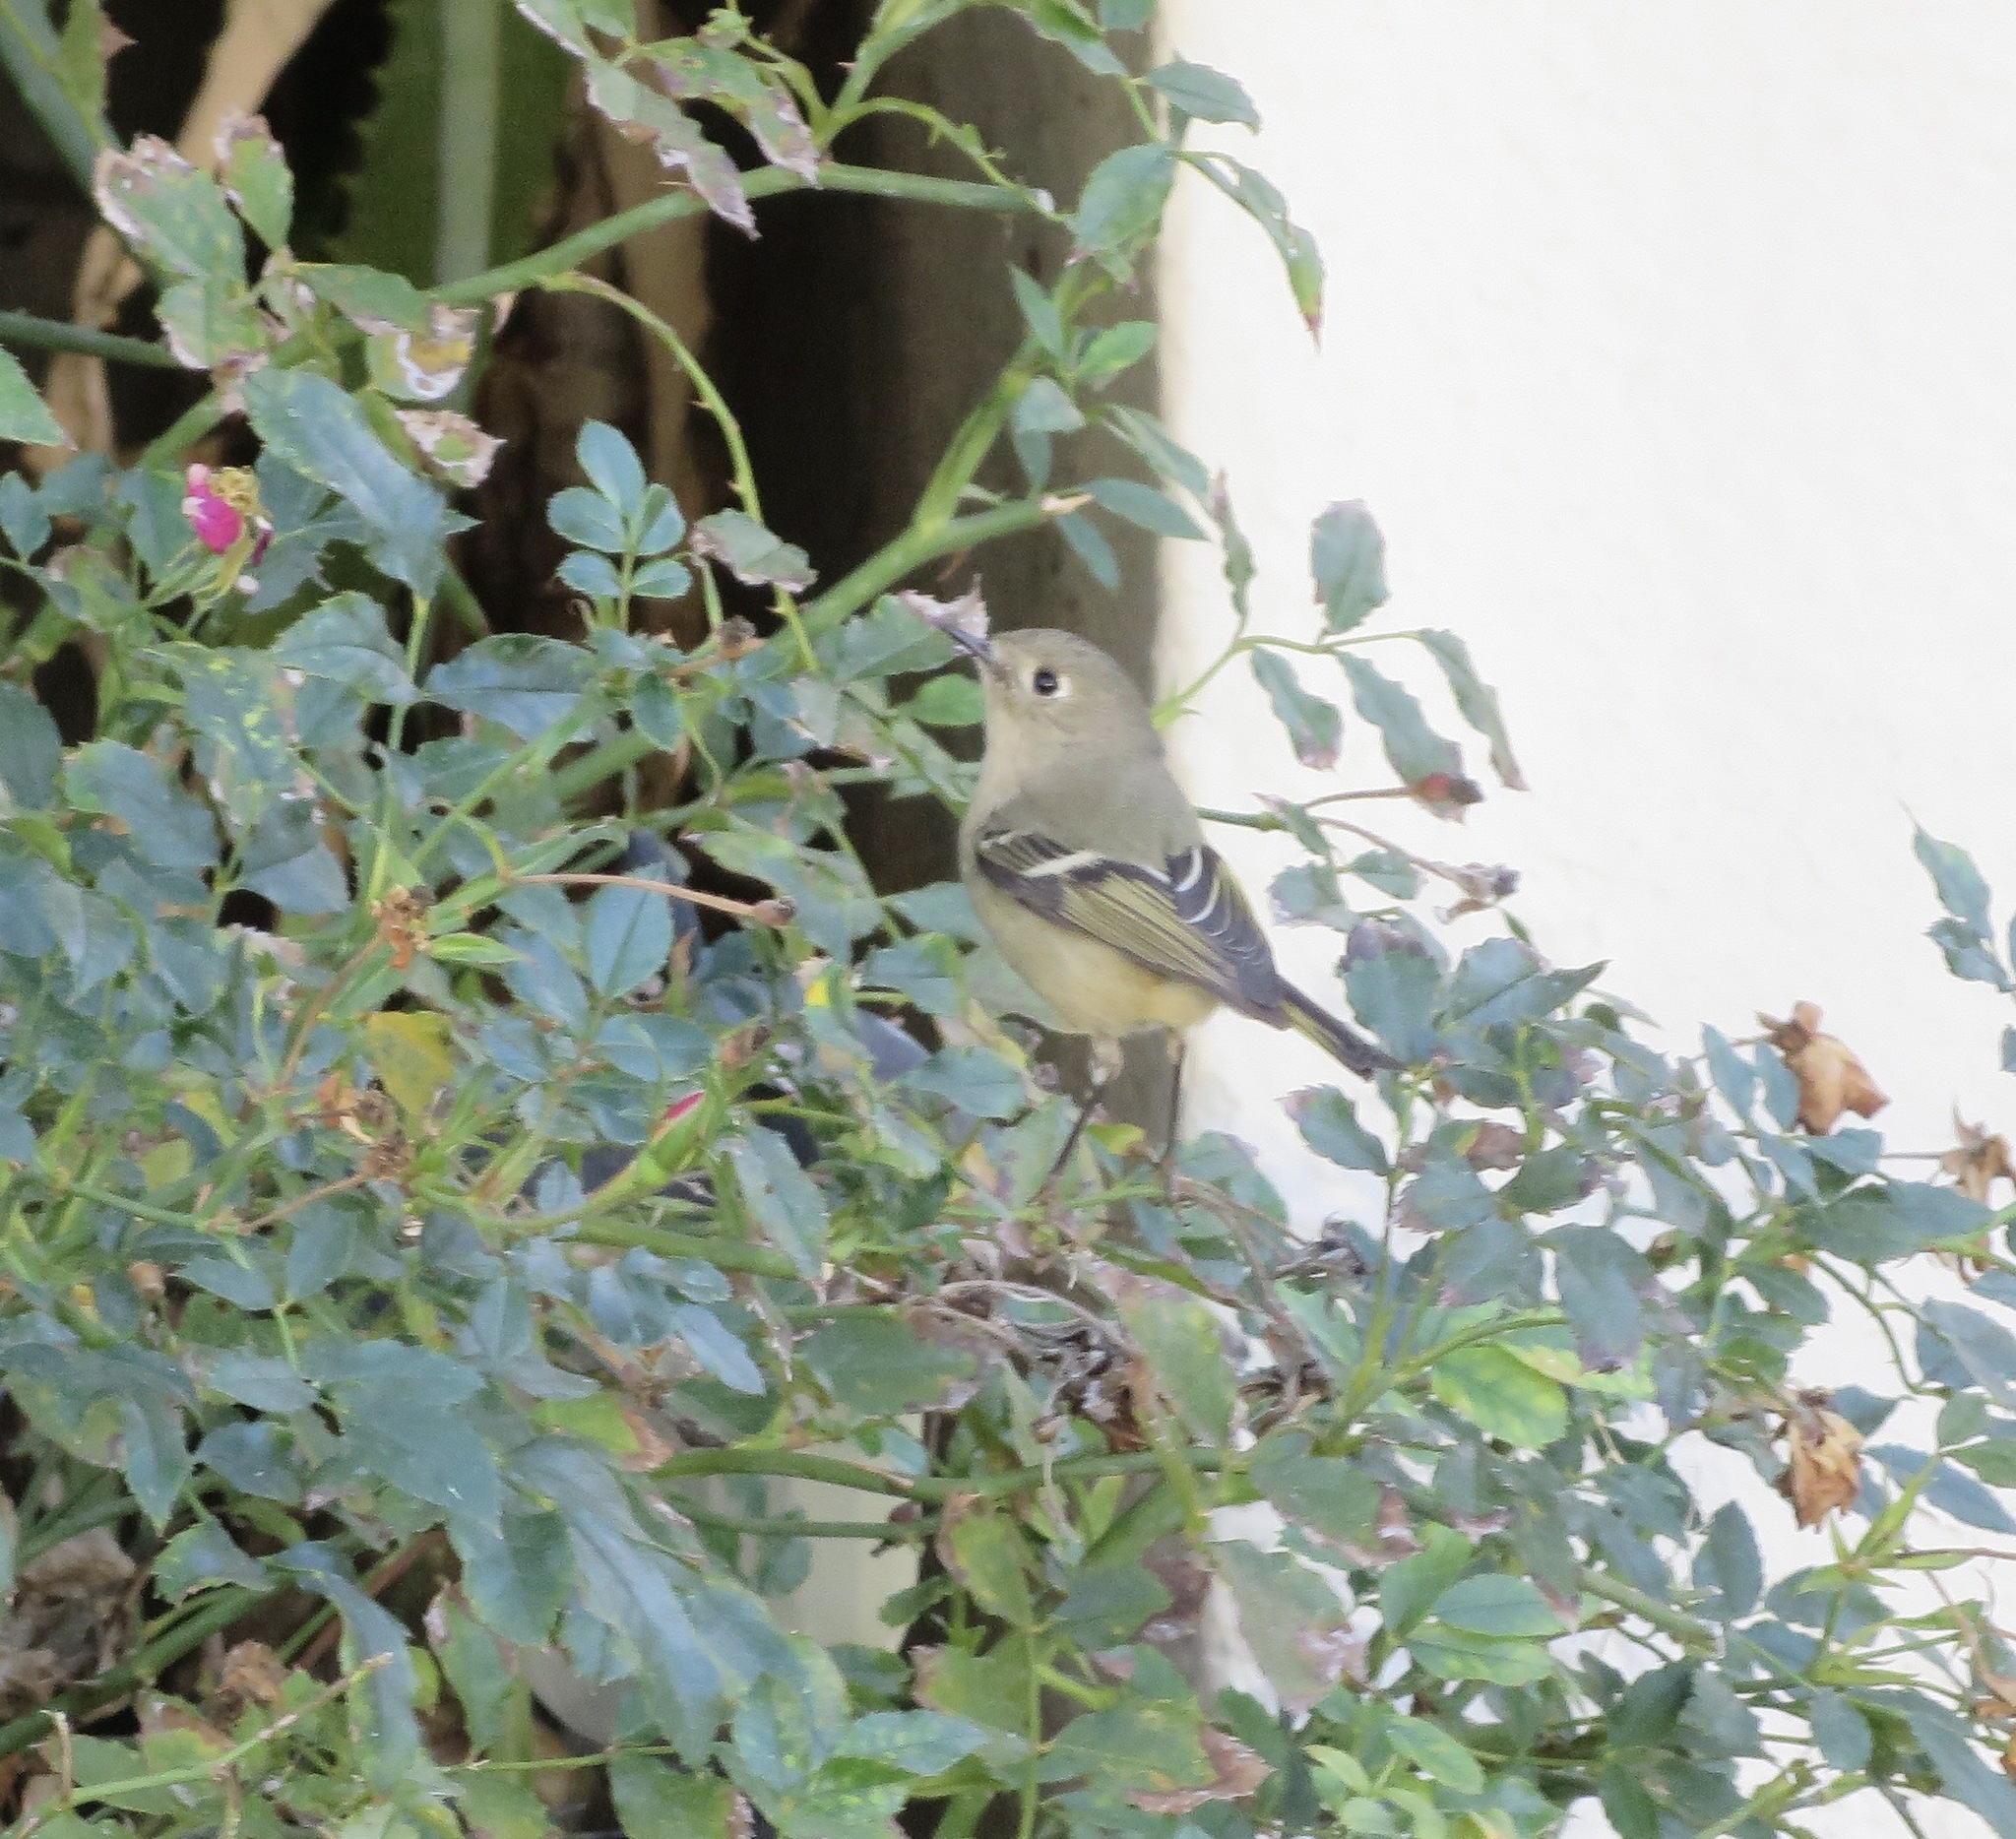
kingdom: Animalia
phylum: Chordata
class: Aves
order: Passeriformes
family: Regulidae
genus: Regulus
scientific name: Regulus calendula
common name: Ruby-crowned kinglet
